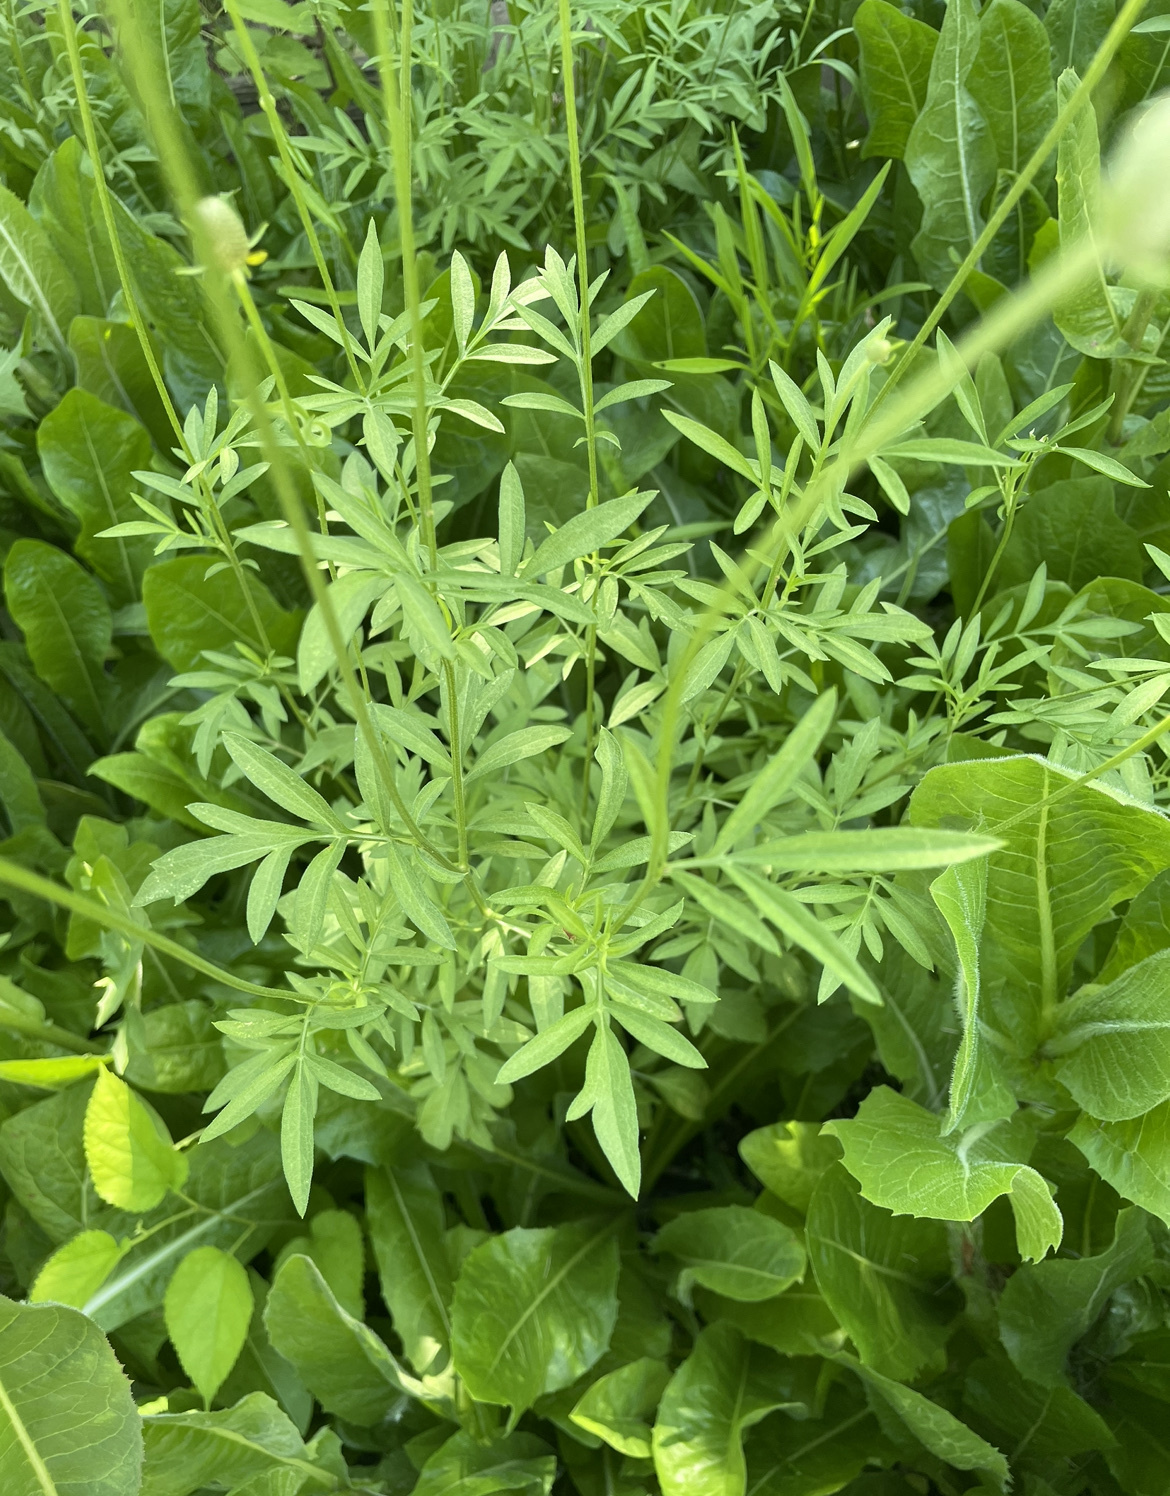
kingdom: Plantae
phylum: Tracheophyta
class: Magnoliopsida
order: Asterales
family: Asteraceae
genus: Ratibida
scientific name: Ratibida columnifera
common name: Prairie coneflower
